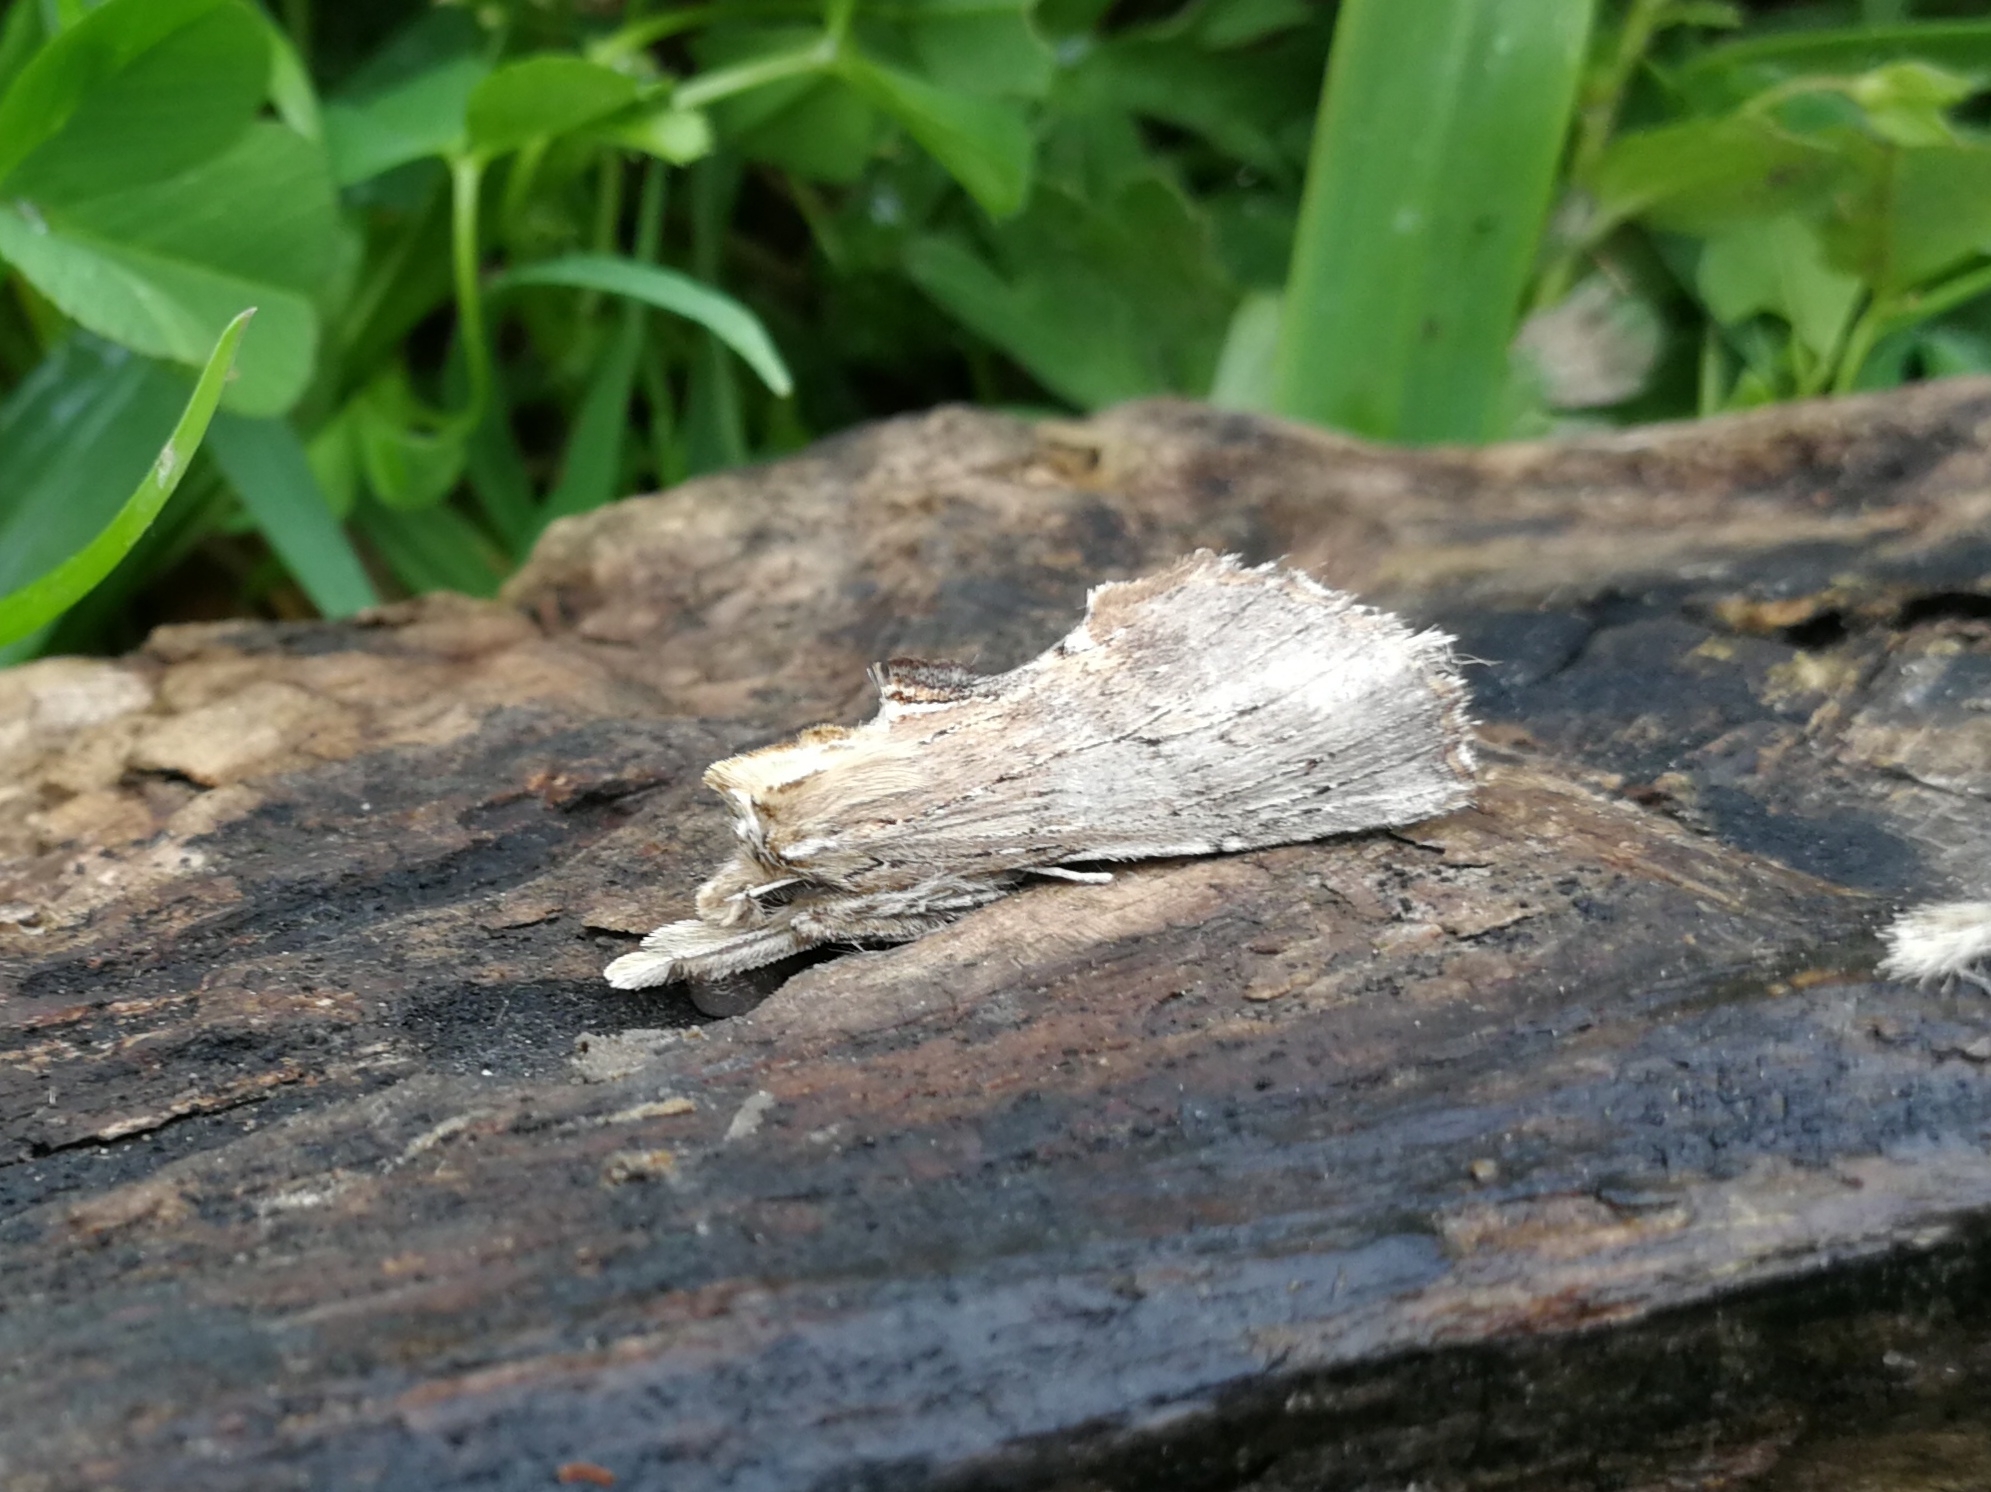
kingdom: Animalia
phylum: Arthropoda
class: Insecta
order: Lepidoptera
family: Notodontidae
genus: Pterostoma
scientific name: Pterostoma palpina
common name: Pale prominent
